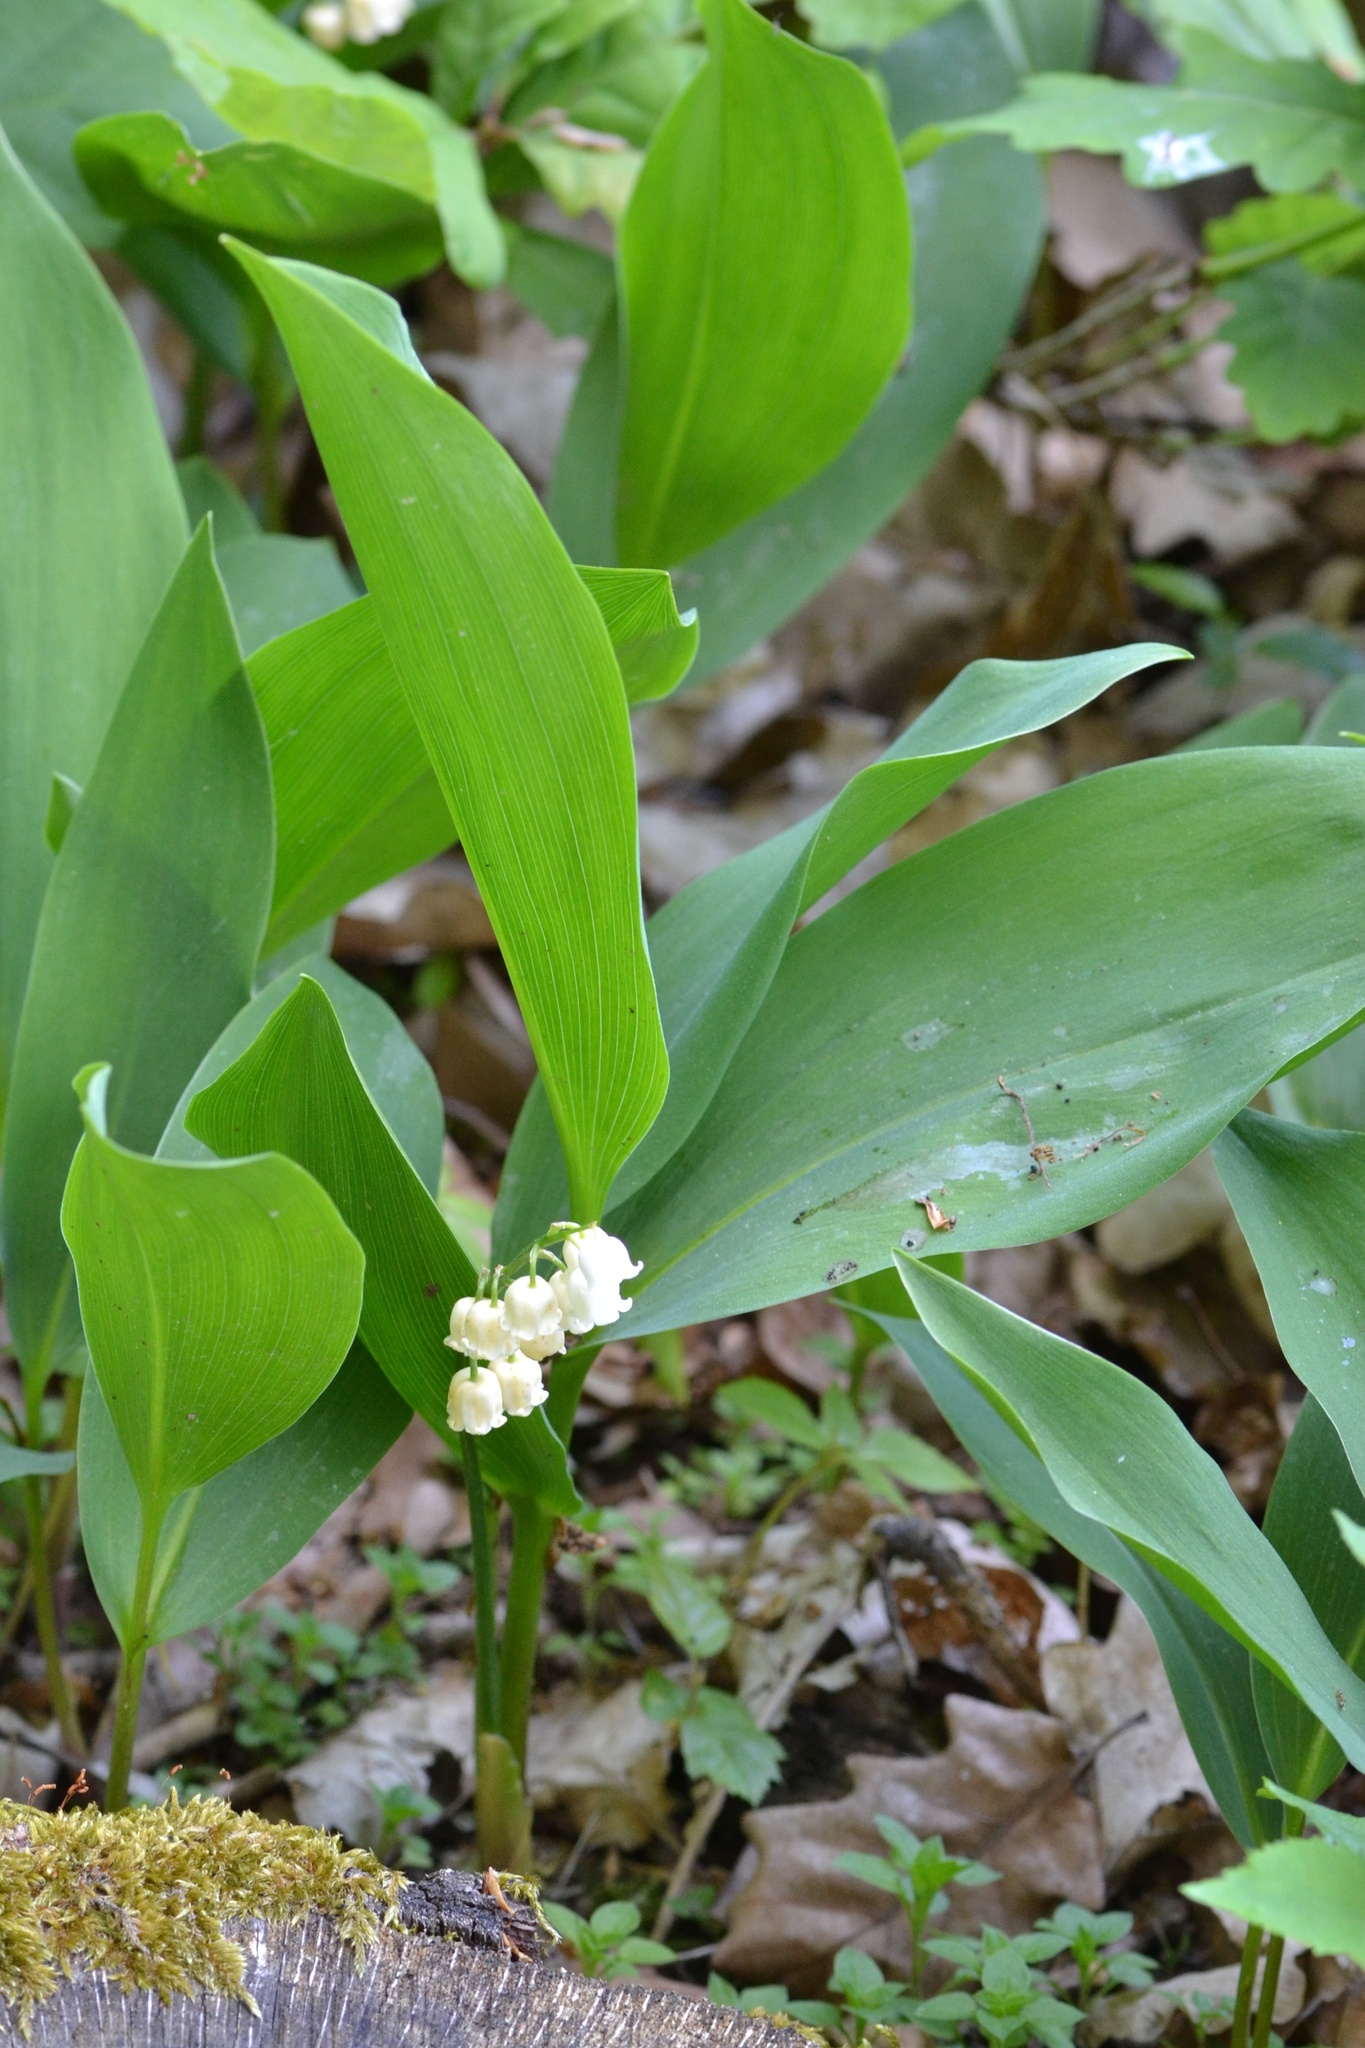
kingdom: Plantae
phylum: Tracheophyta
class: Liliopsida
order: Asparagales
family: Asparagaceae
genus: Convallaria
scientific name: Convallaria majalis
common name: Lily-of-the-valley
